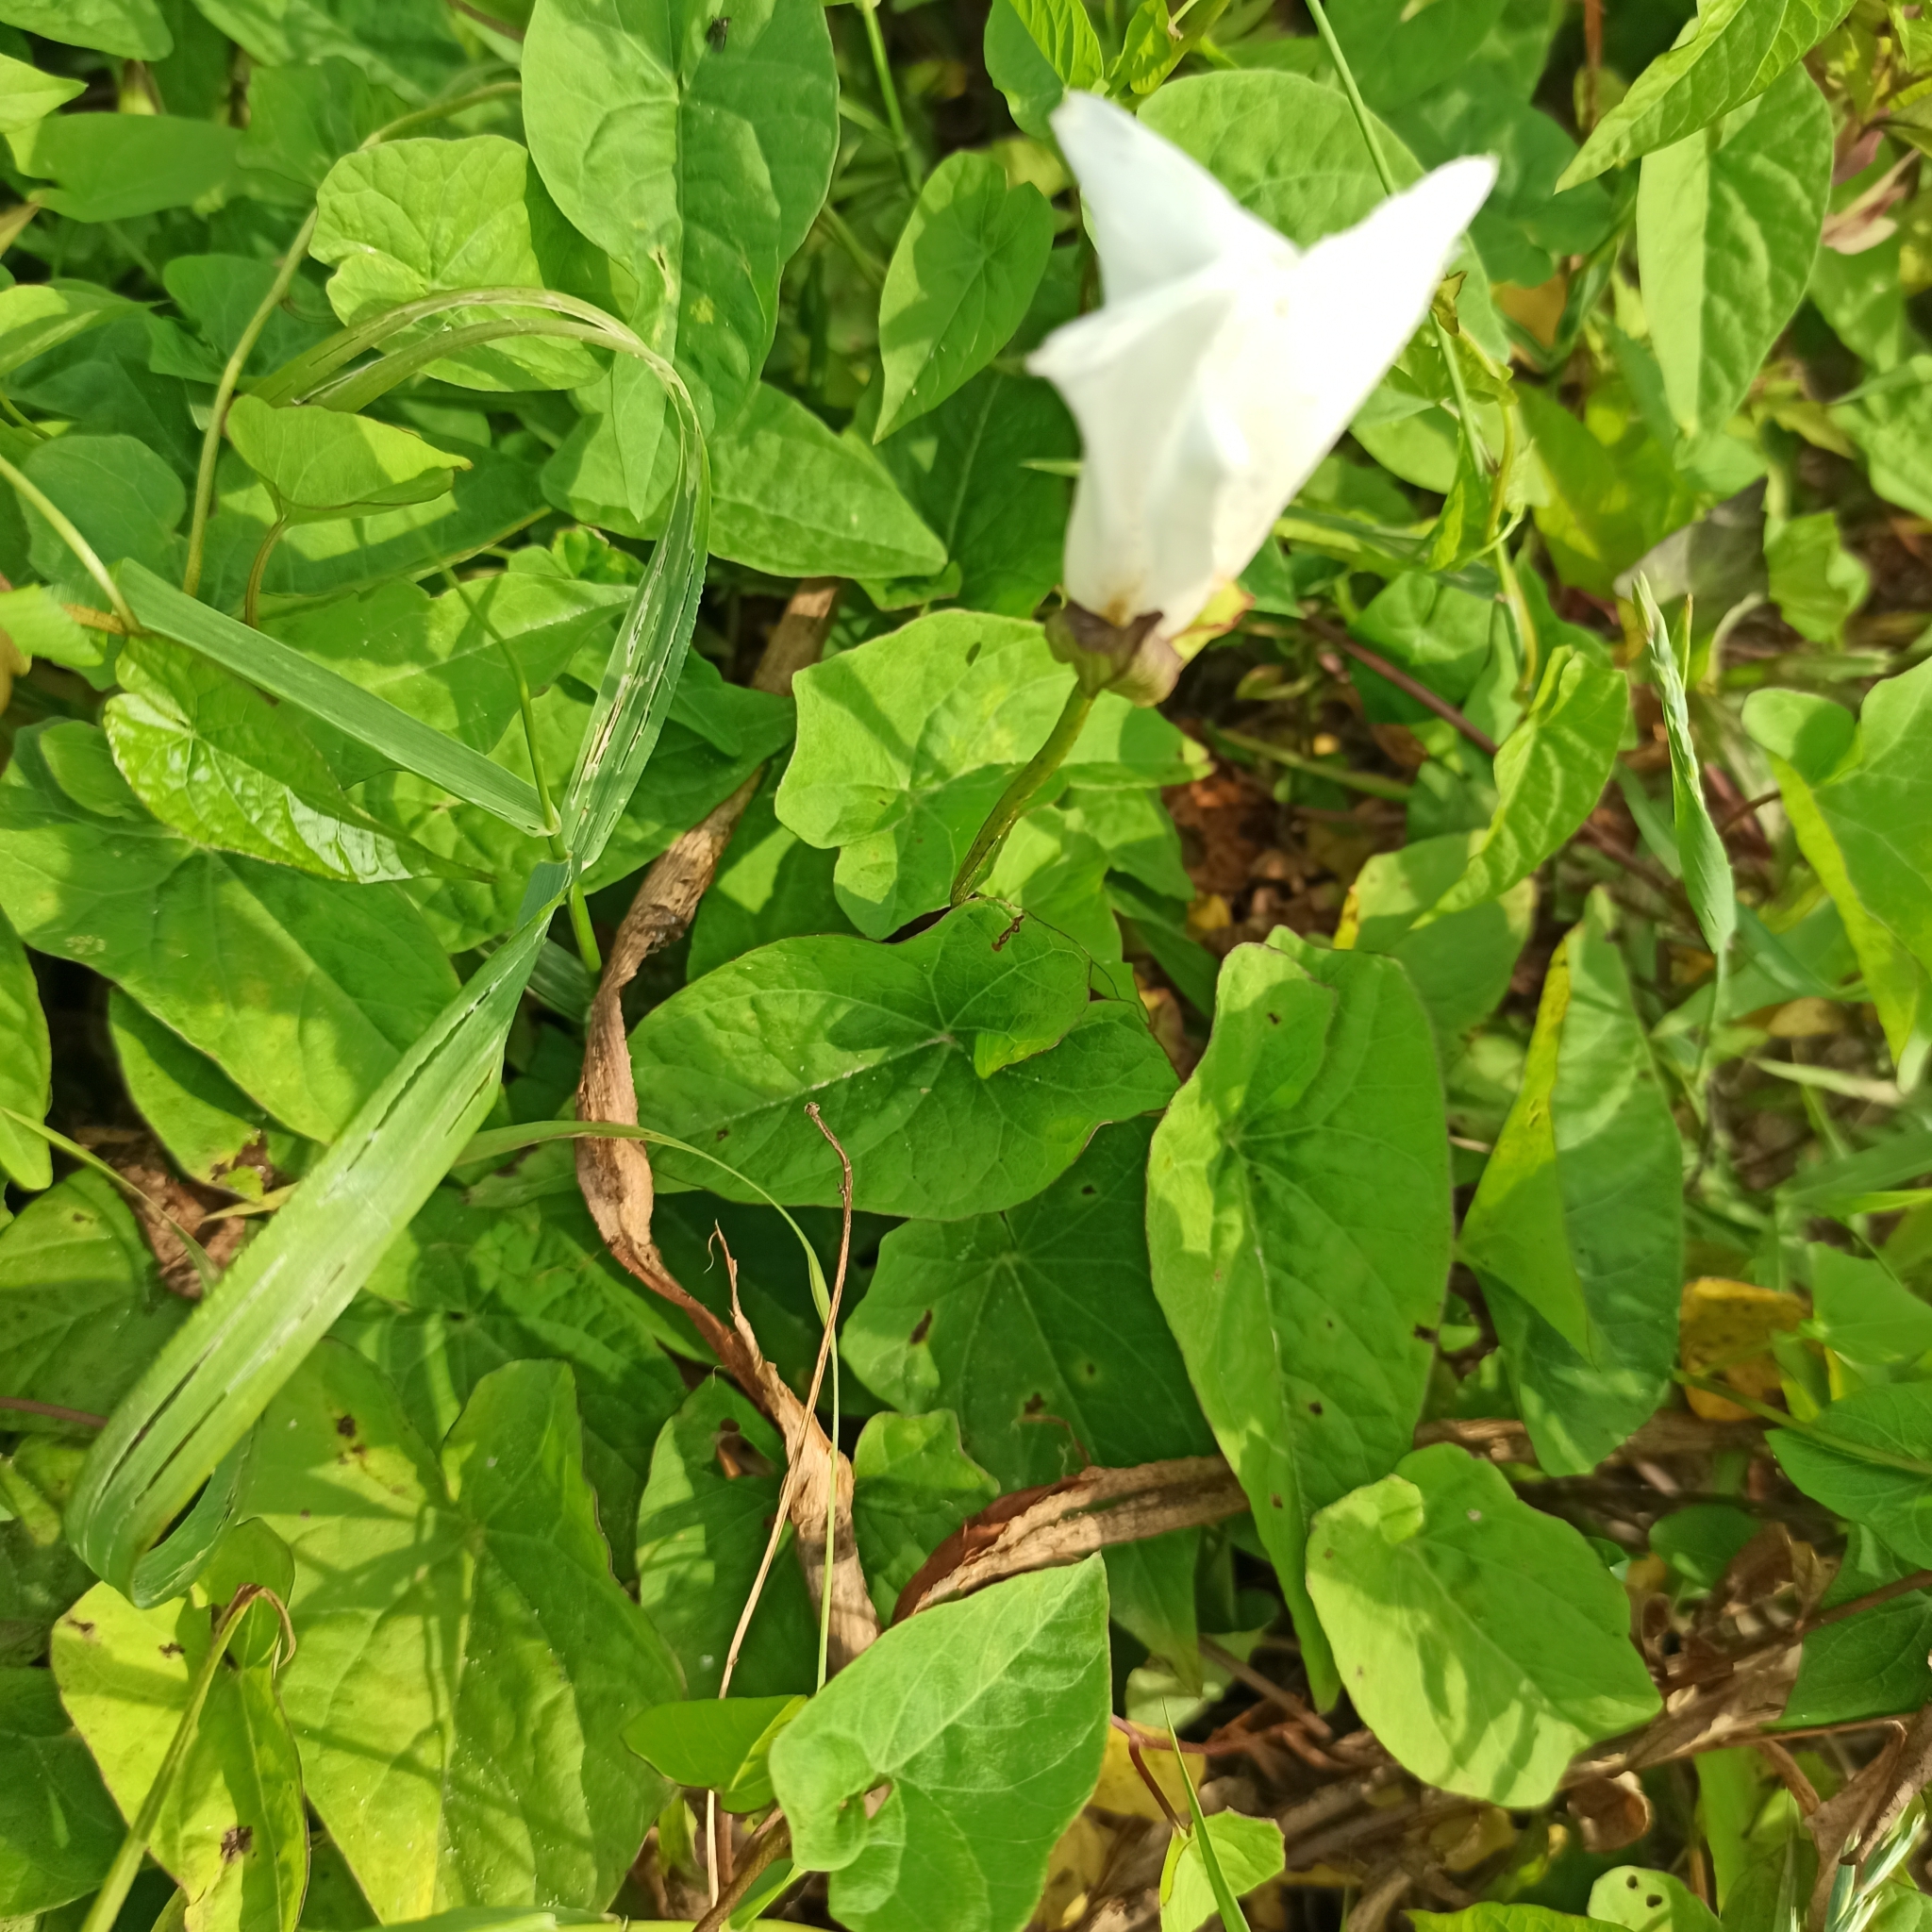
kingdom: Plantae
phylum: Tracheophyta
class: Magnoliopsida
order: Solanales
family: Convolvulaceae
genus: Calystegia
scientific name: Calystegia sepium
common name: Hedge bindweed
